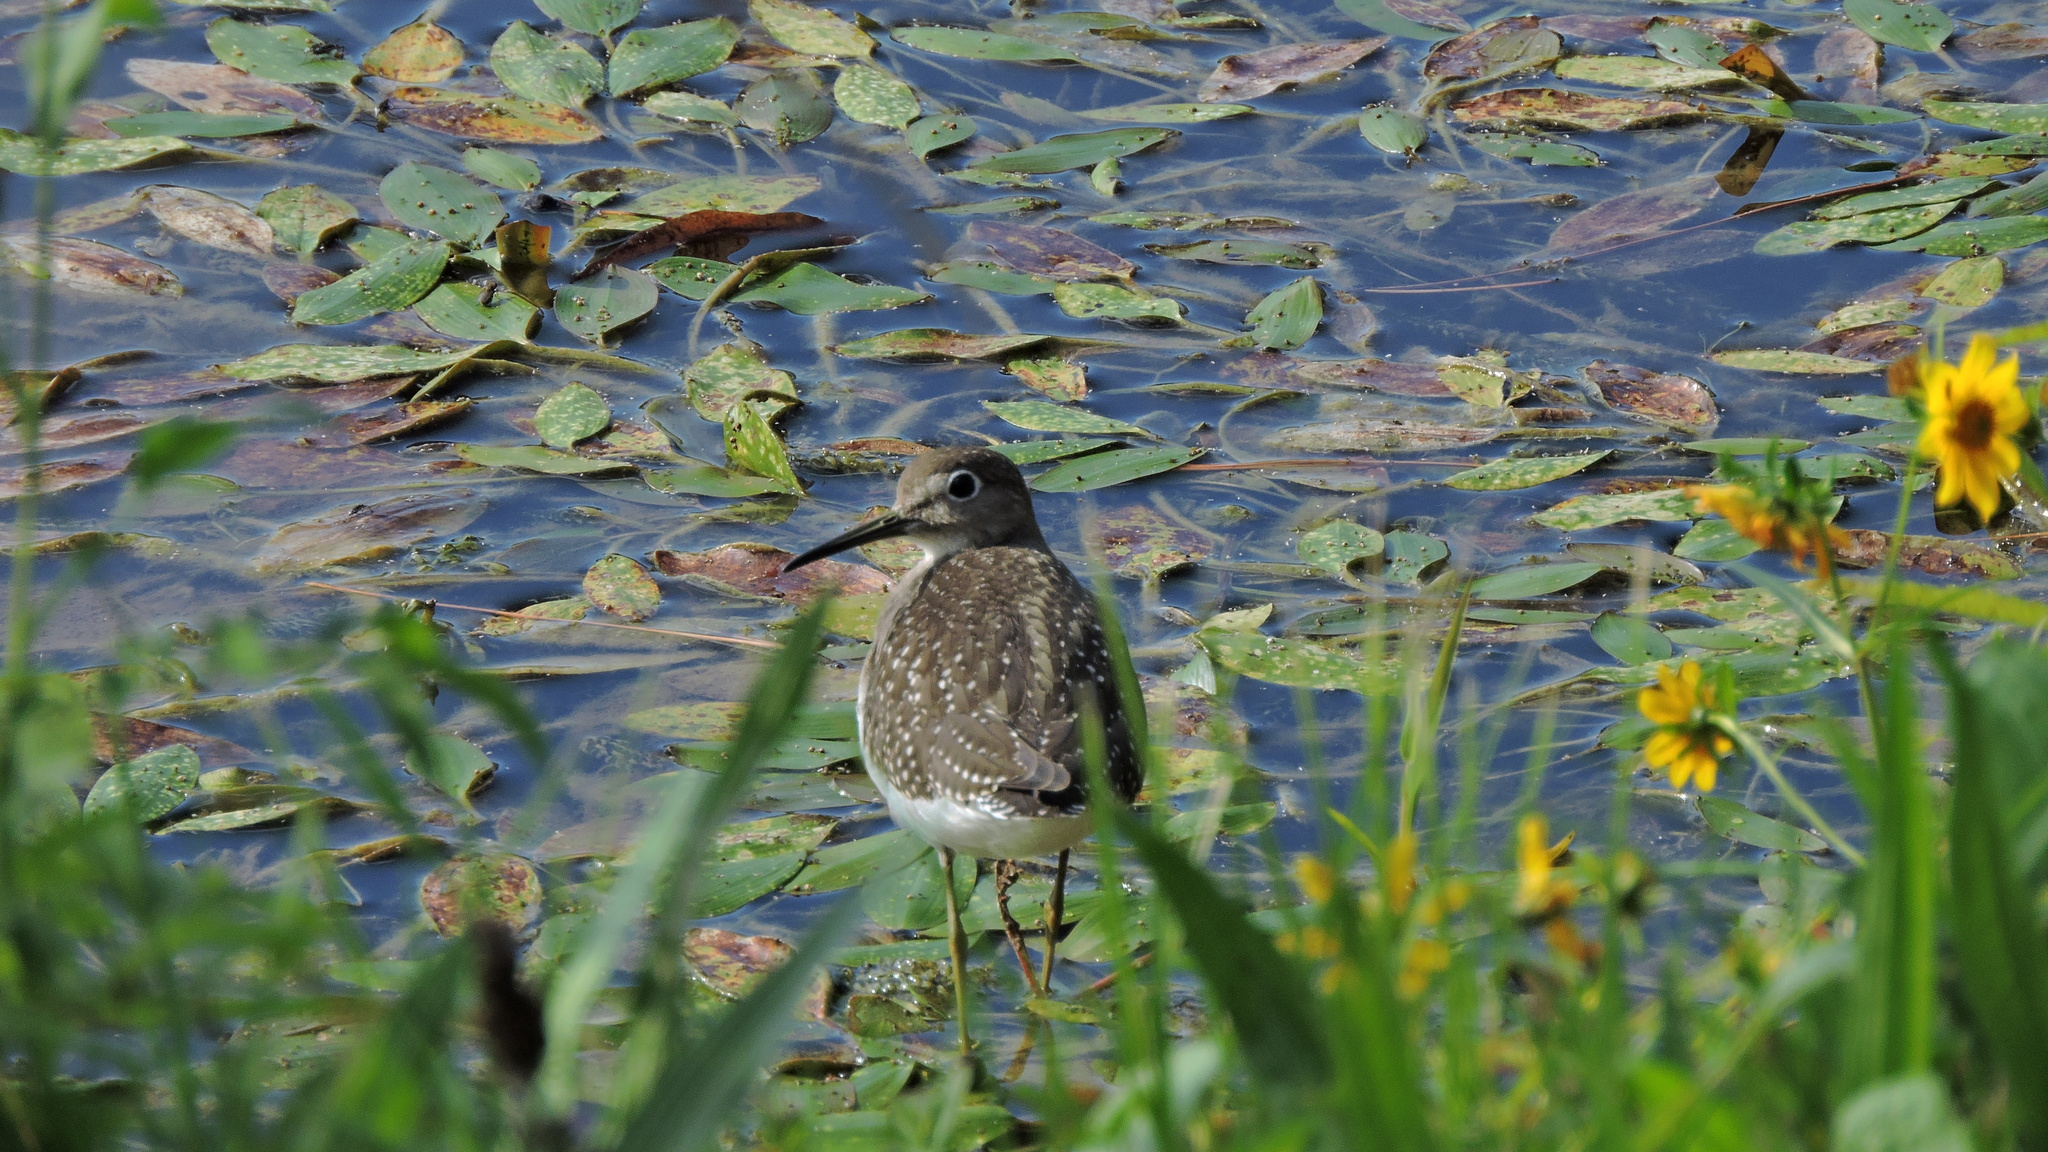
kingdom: Animalia
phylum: Chordata
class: Aves
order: Charadriiformes
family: Scolopacidae
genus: Tringa
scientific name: Tringa solitaria
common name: Solitary sandpiper
